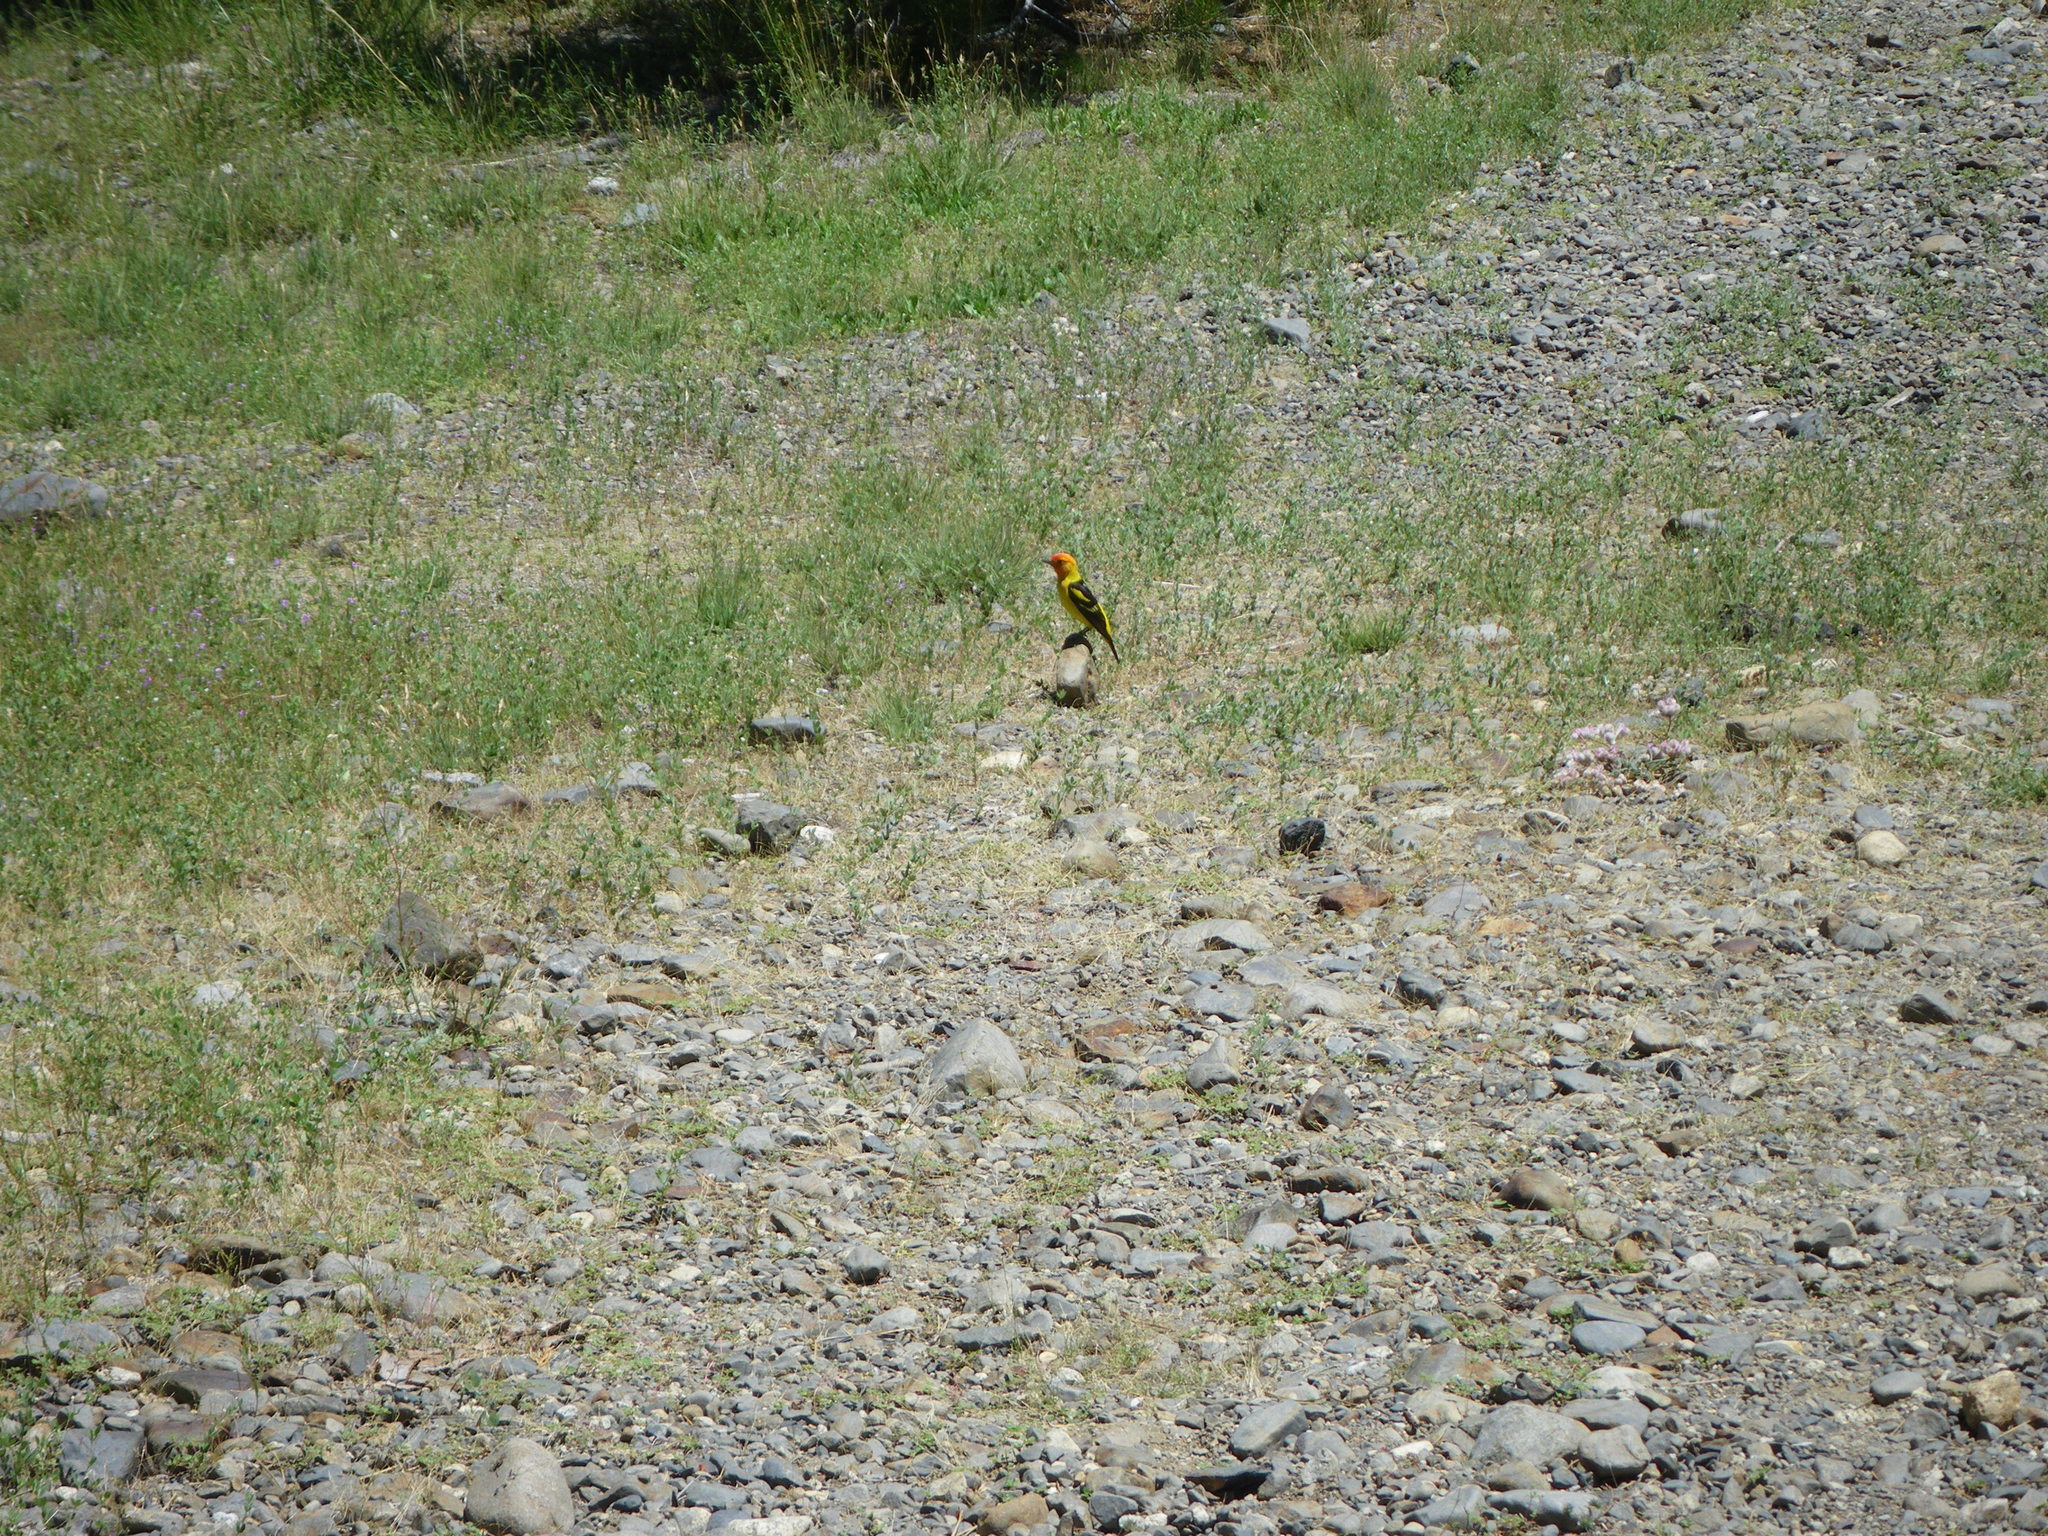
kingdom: Animalia
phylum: Chordata
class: Aves
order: Passeriformes
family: Cardinalidae
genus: Piranga
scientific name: Piranga ludoviciana
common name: Western tanager
